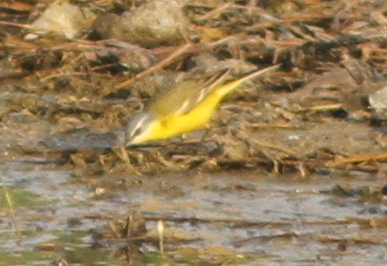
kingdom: Animalia
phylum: Chordata
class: Aves
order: Passeriformes
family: Motacillidae
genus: Motacilla
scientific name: Motacilla flava
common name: Western yellow wagtail
